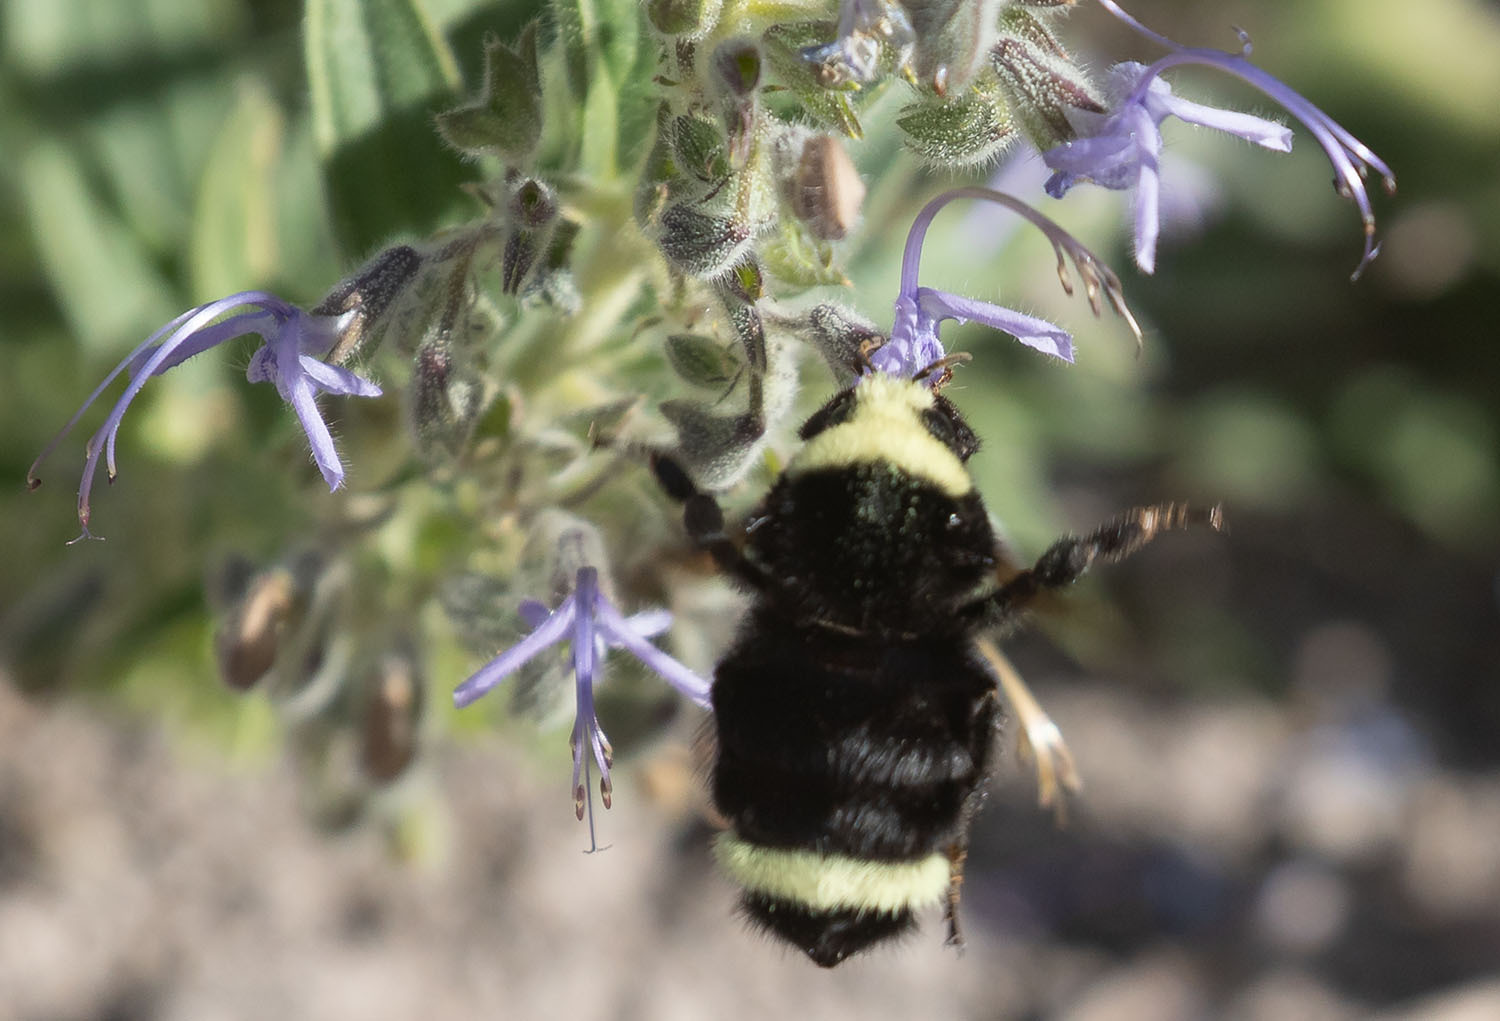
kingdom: Animalia
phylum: Arthropoda
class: Insecta
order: Hymenoptera
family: Apidae
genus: Bombus
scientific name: Bombus vosnesenskii
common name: Vosnesensky bumble bee
